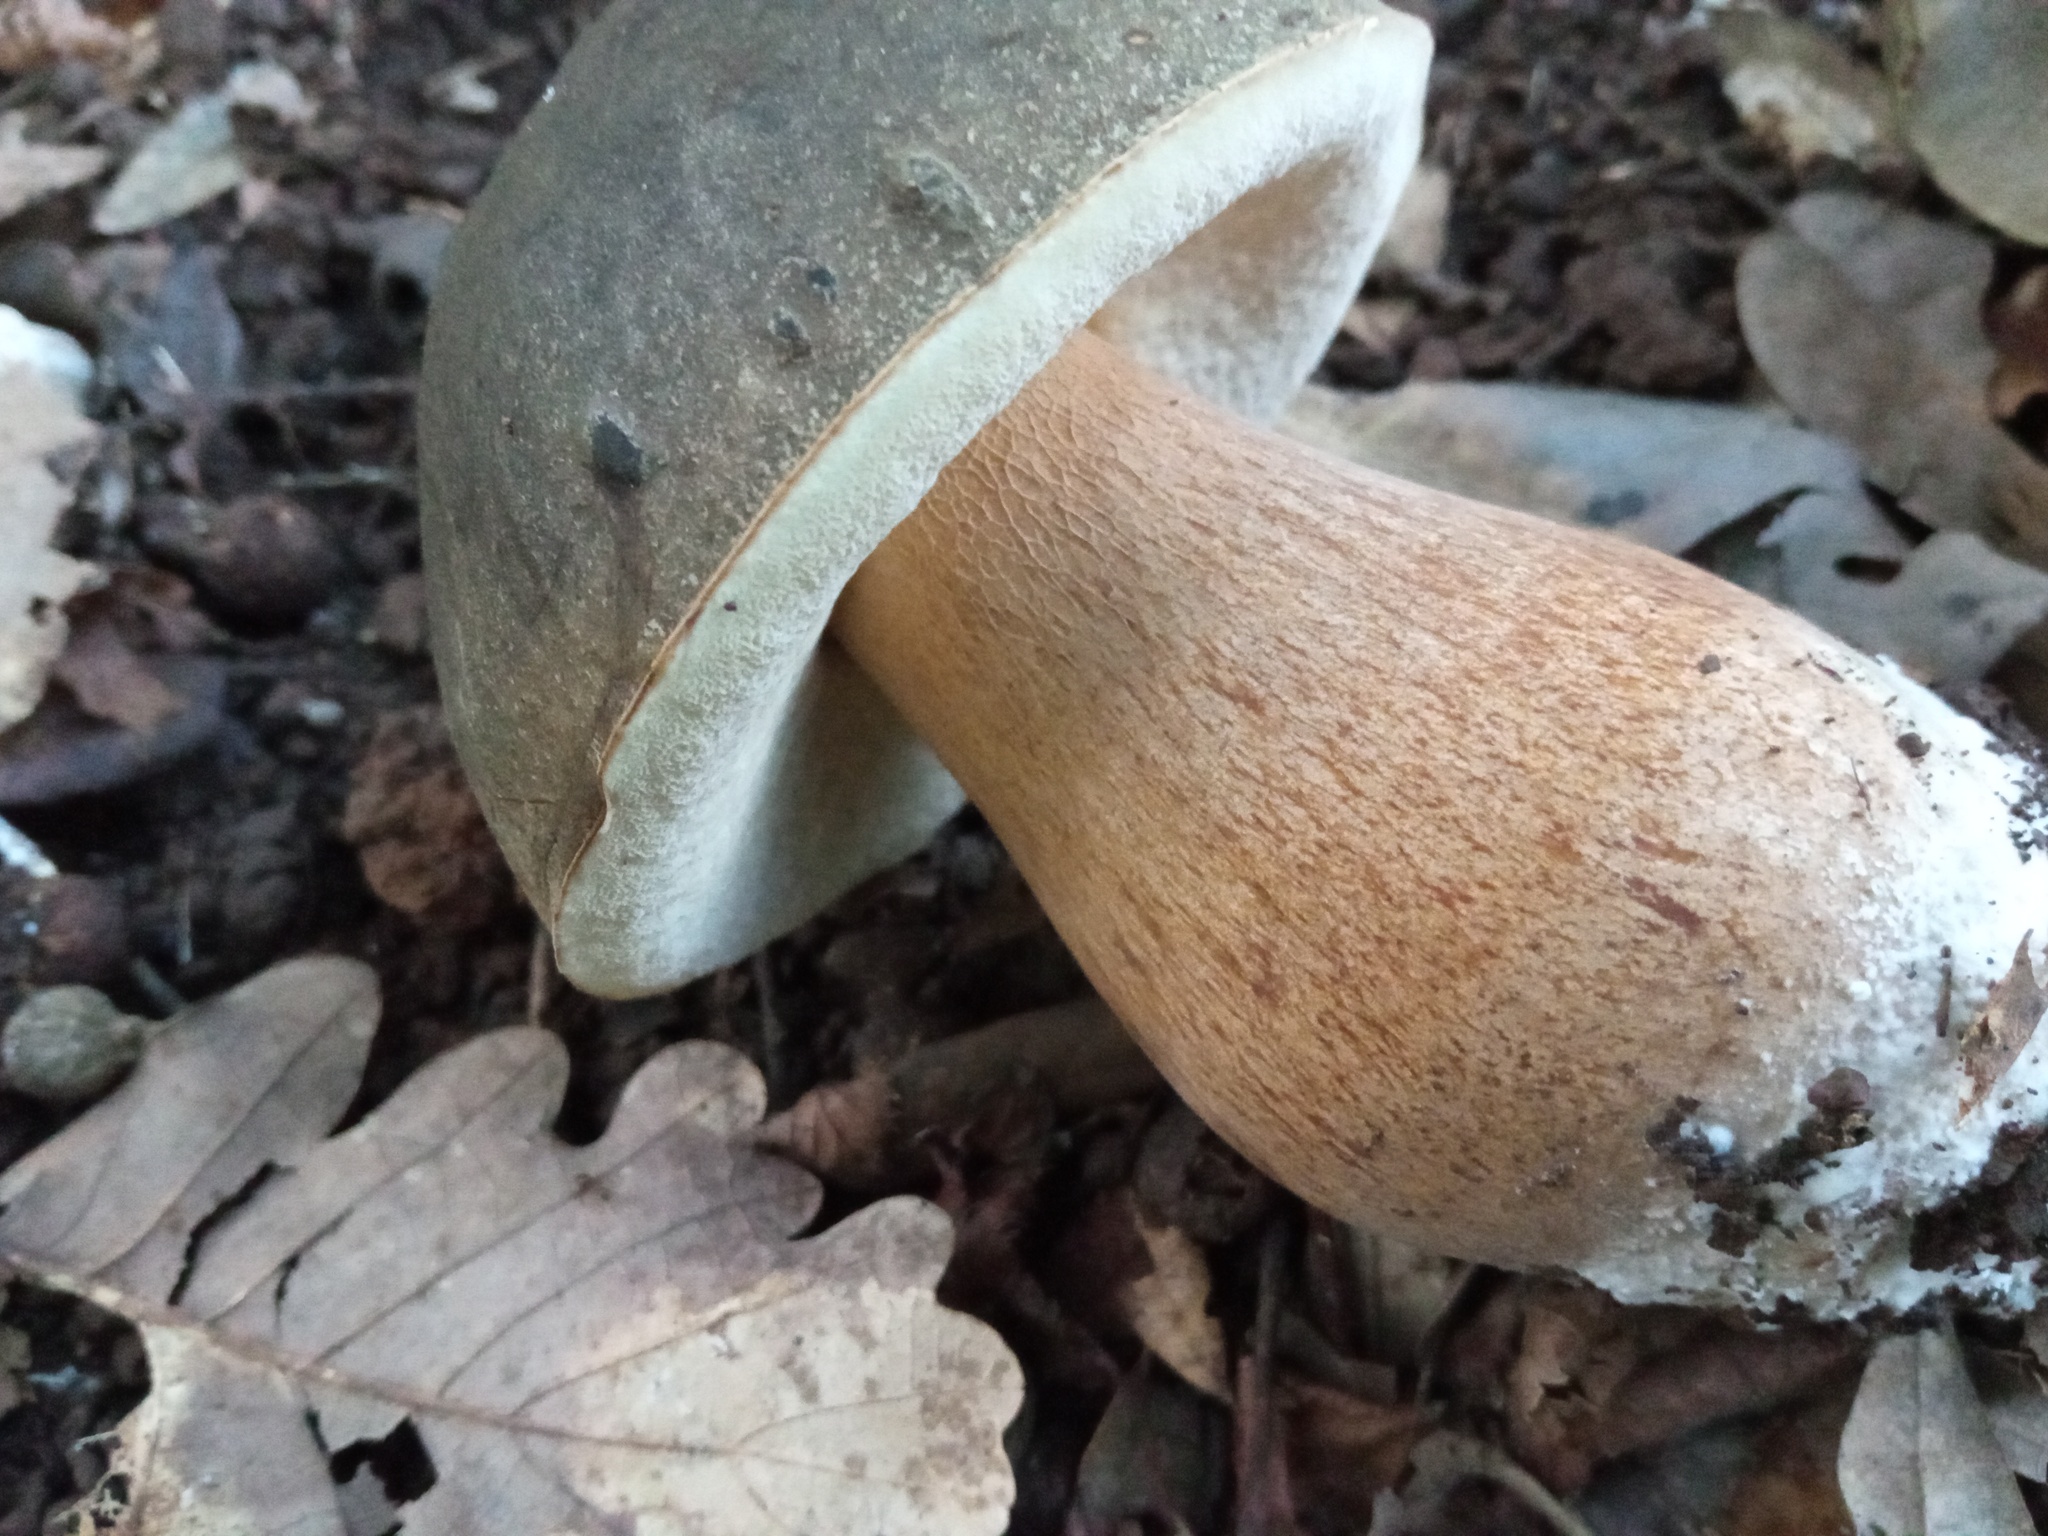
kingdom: Fungi
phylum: Basidiomycota
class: Agaricomycetes
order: Boletales
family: Boletaceae
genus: Boletus
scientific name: Boletus aereus
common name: Bronze bolete
